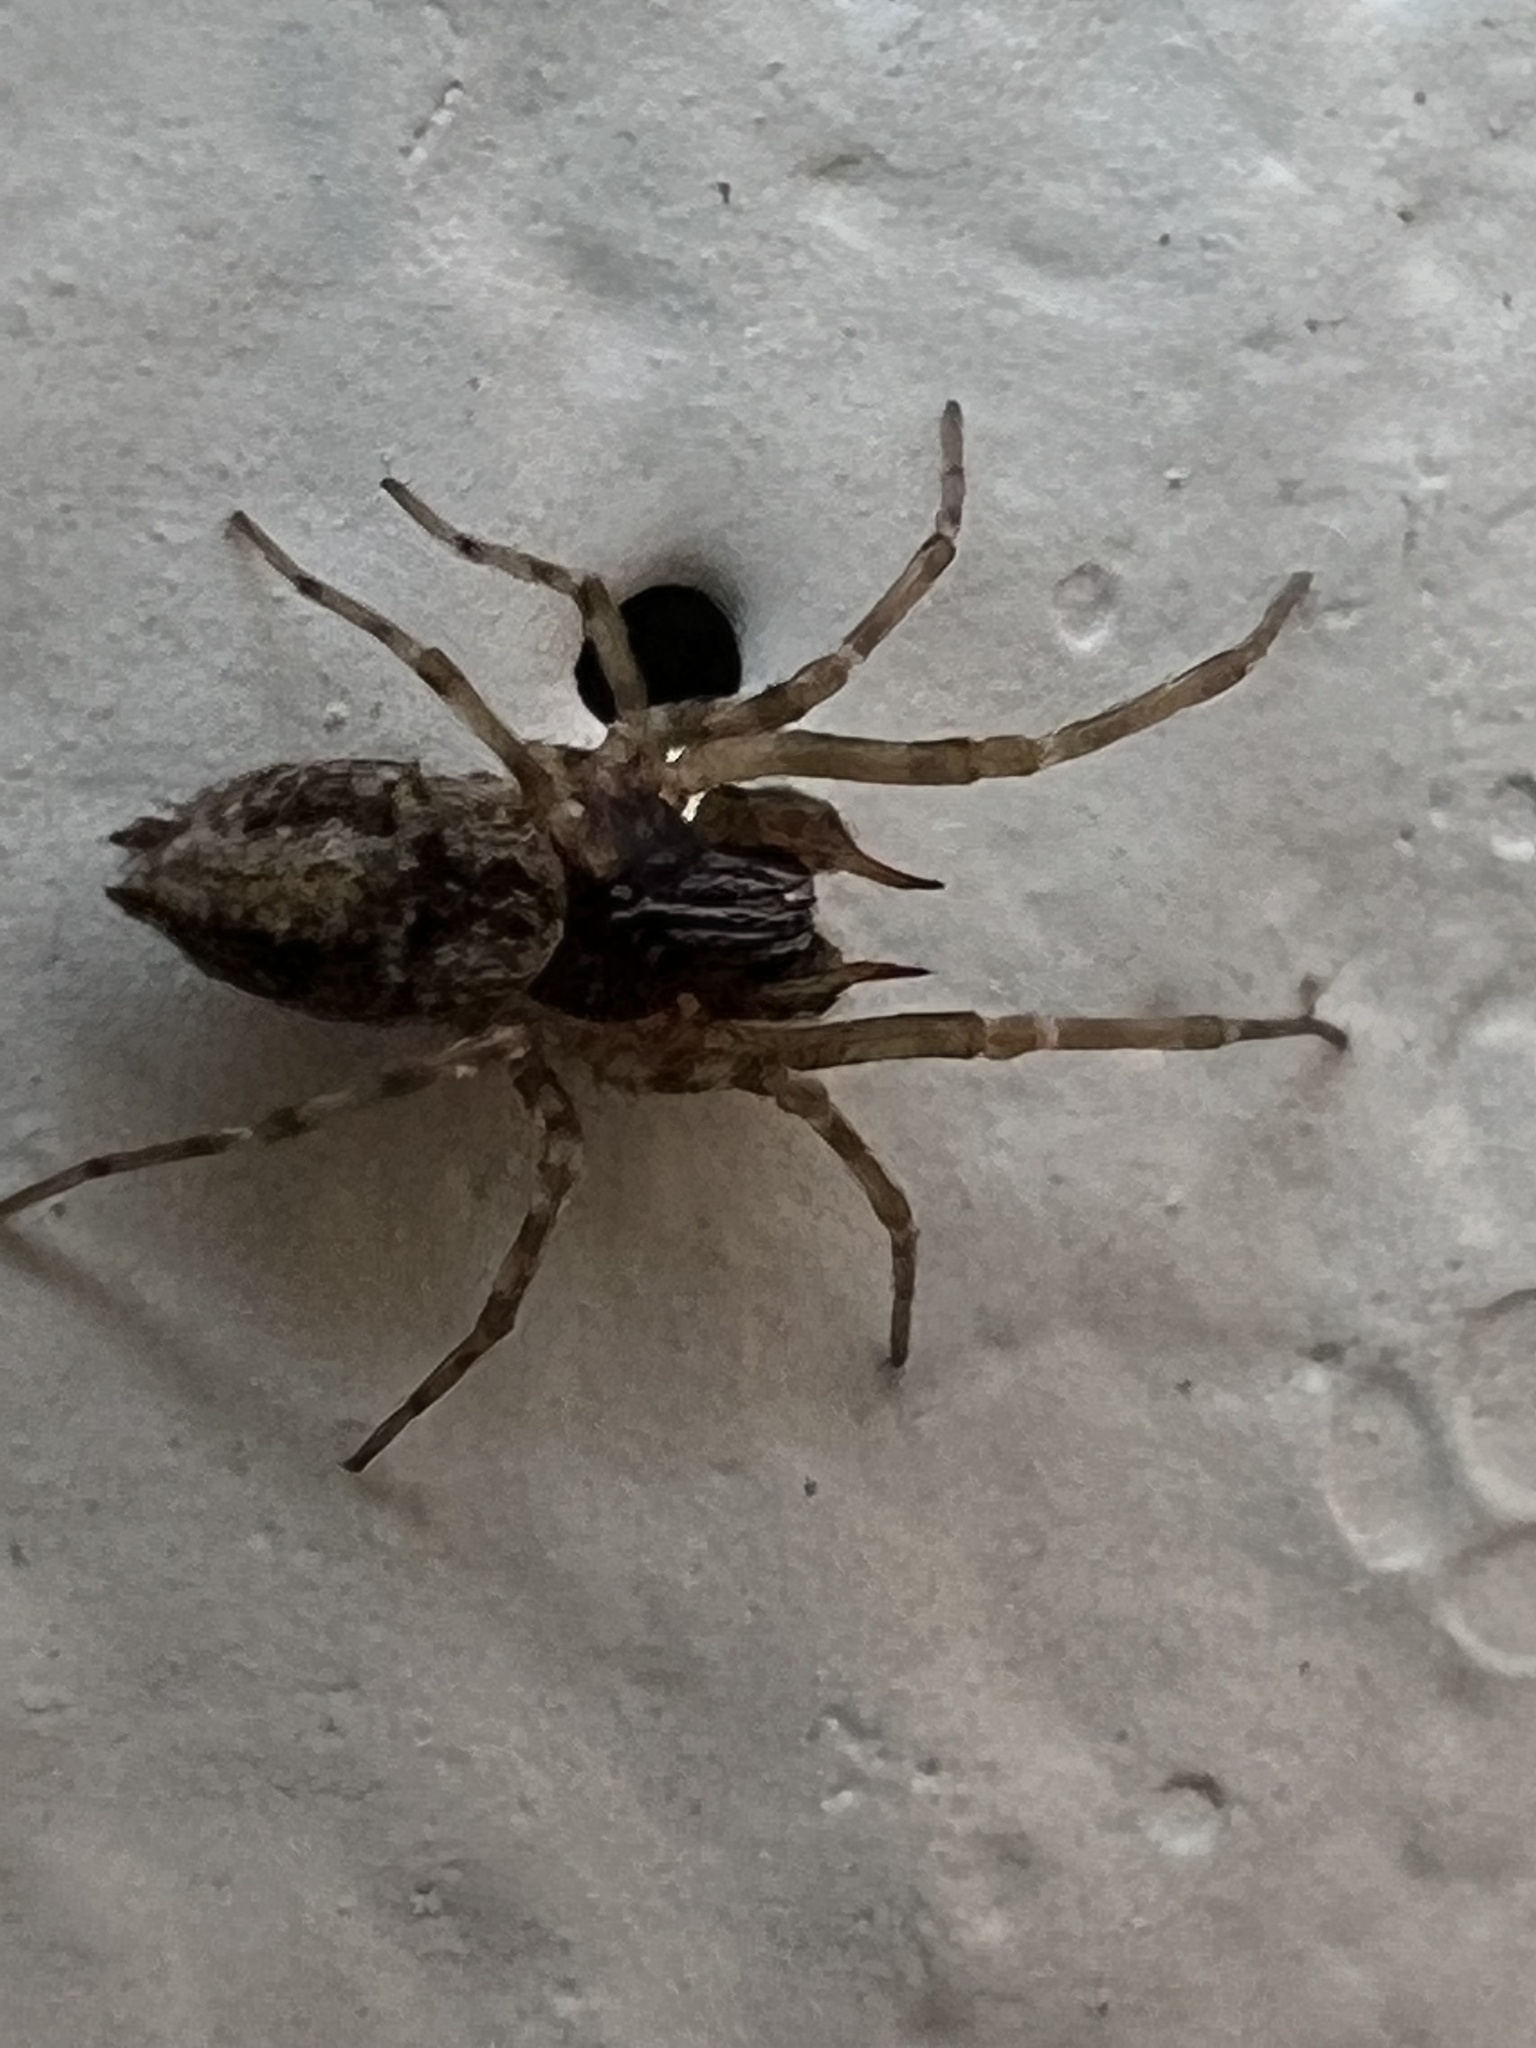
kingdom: Animalia
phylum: Arthropoda
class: Arachnida
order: Araneae
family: Dictynidae
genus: Dictyna
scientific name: Dictyna calcarata
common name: Mesh weaver
